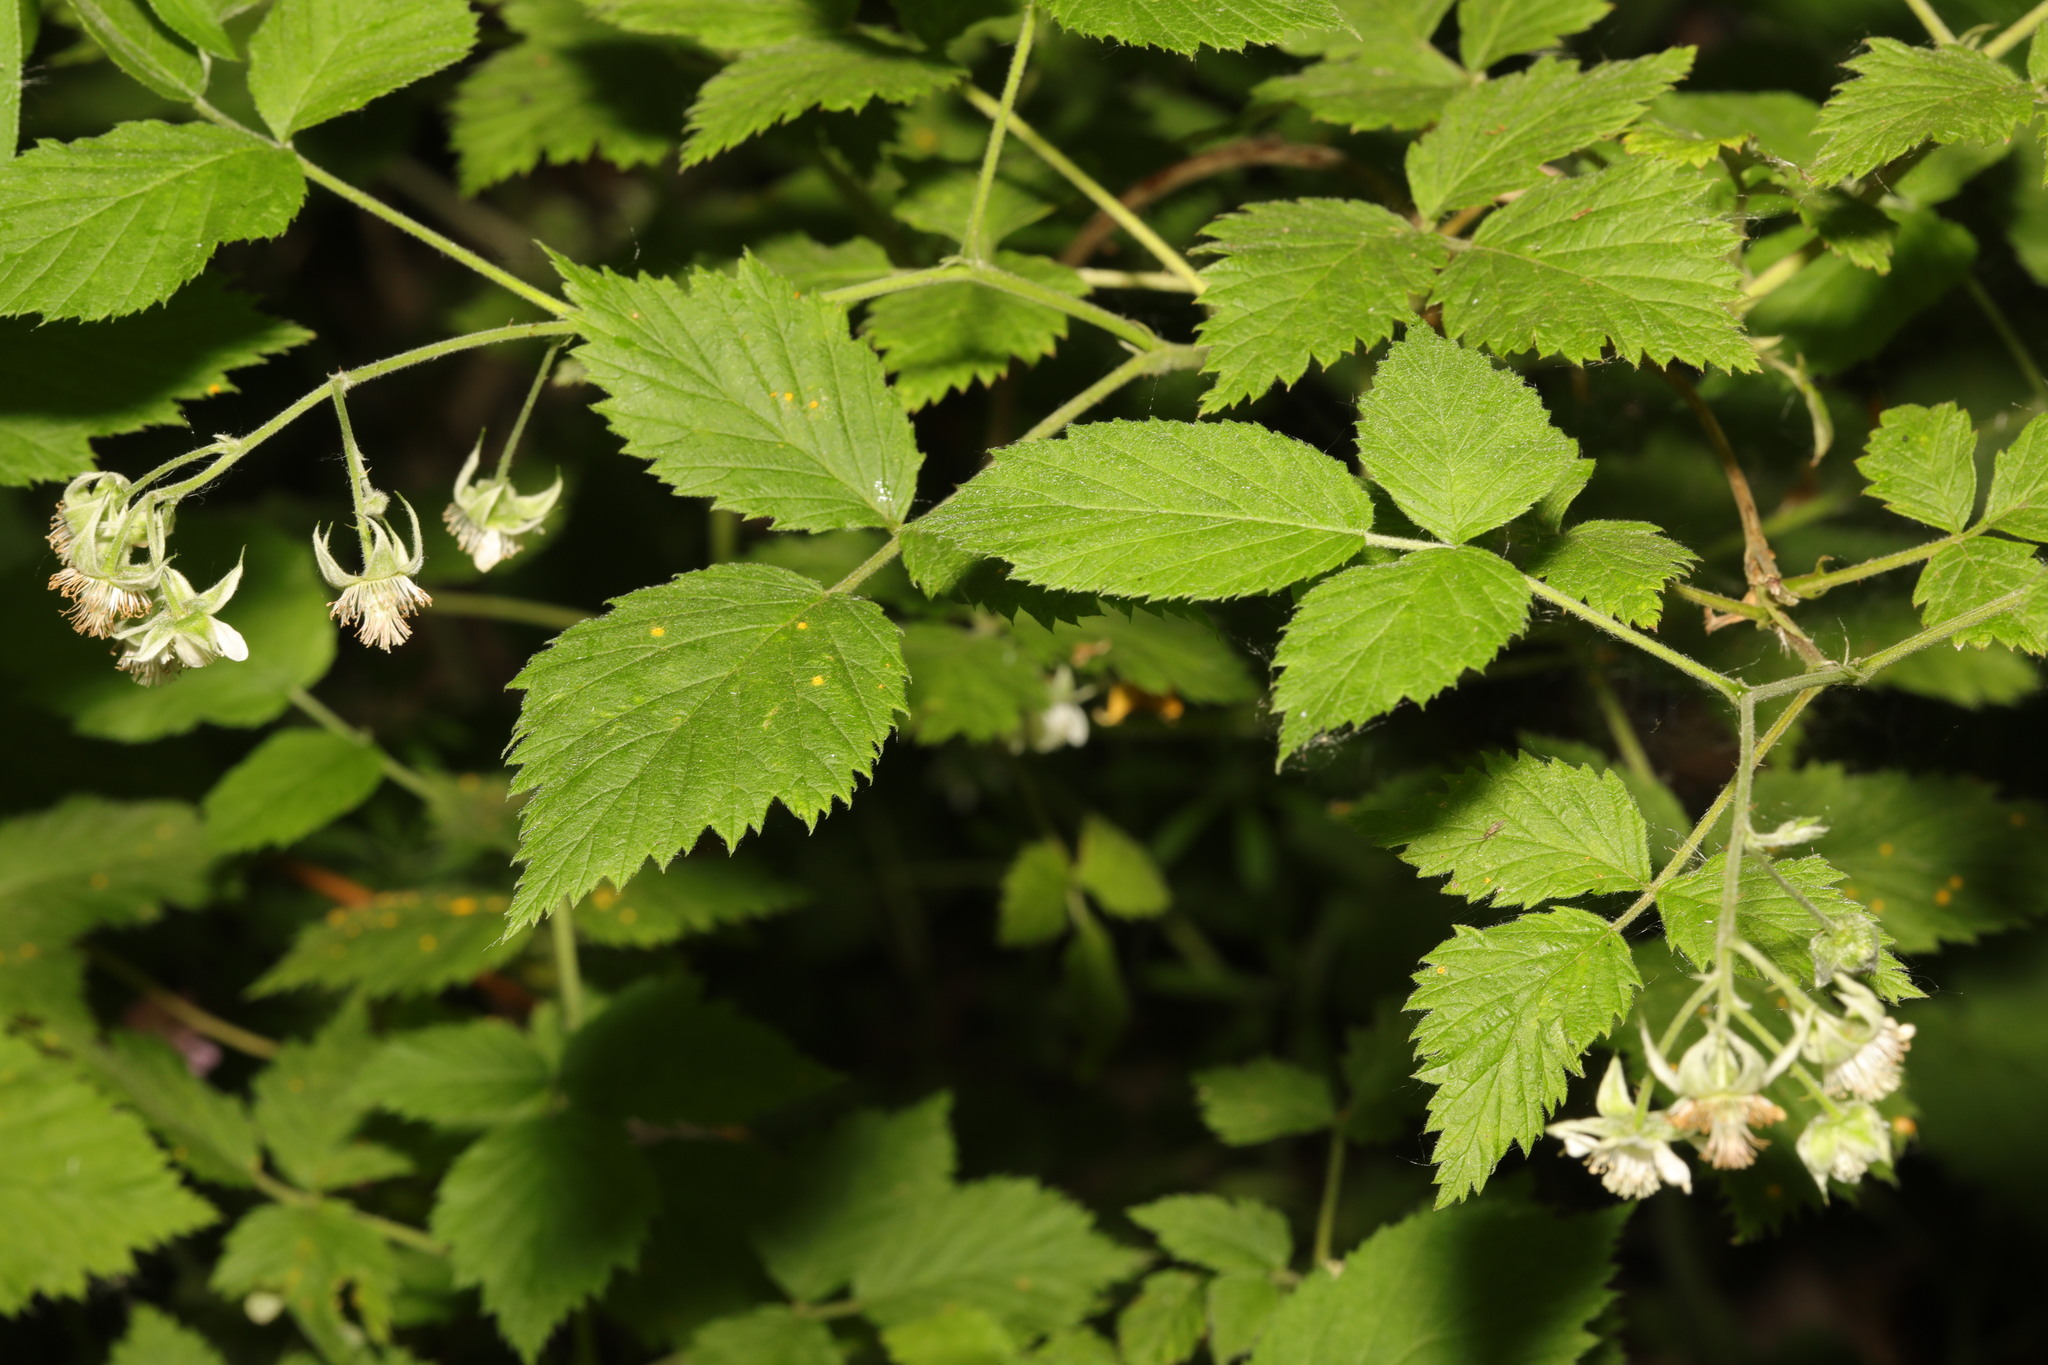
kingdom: Plantae
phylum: Tracheophyta
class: Magnoliopsida
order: Rosales
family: Rosaceae
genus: Rubus
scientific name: Rubus idaeus
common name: Raspberry
